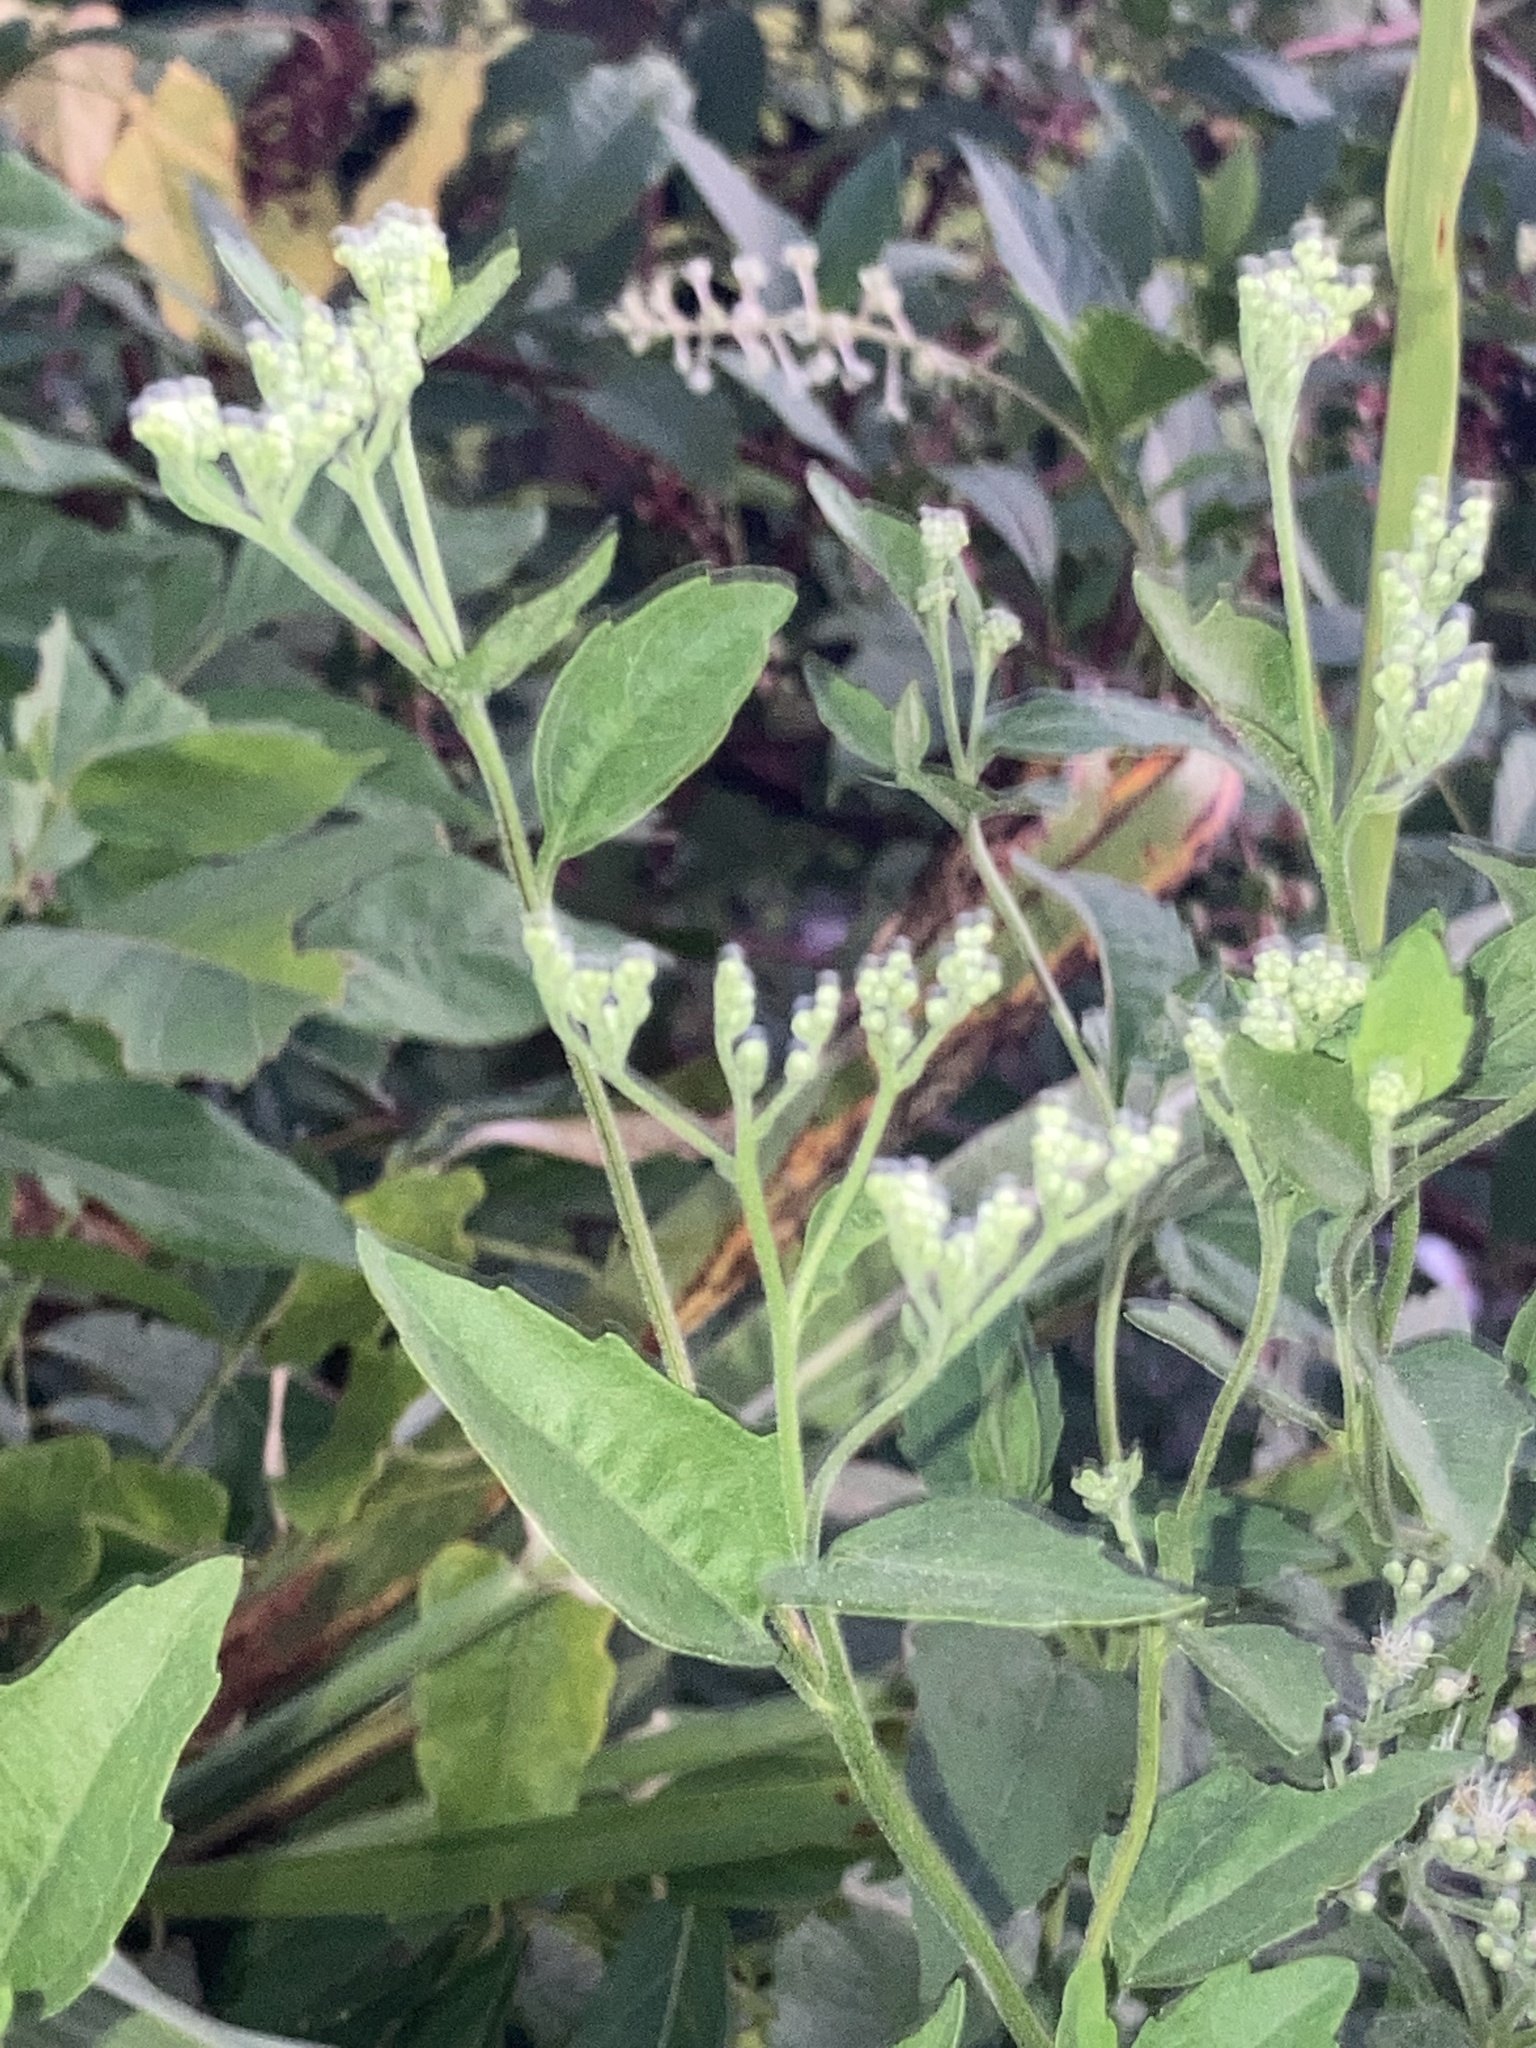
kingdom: Plantae
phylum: Tracheophyta
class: Magnoliopsida
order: Asterales
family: Asteraceae
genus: Eupatorium
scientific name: Eupatorium serotinum
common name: Late boneset
